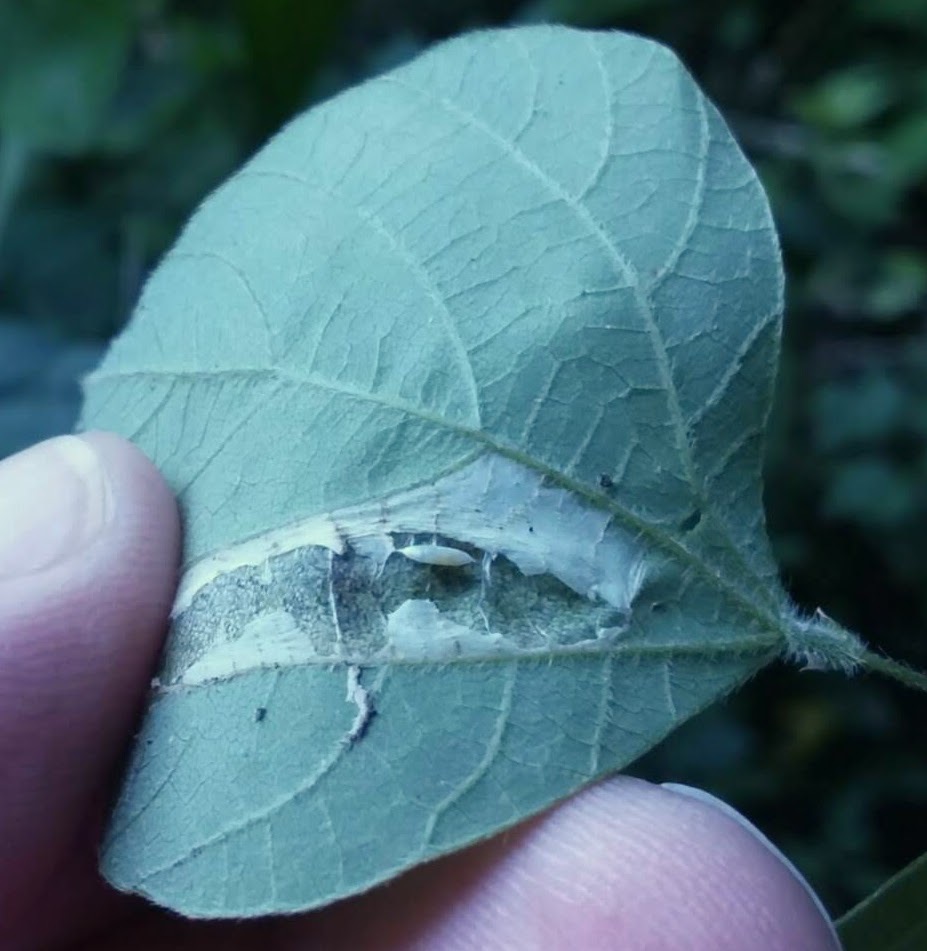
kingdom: Animalia
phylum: Arthropoda
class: Insecta
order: Lepidoptera
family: Gracillariidae
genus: Porphyrosela
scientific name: Porphyrosela desmodiella
